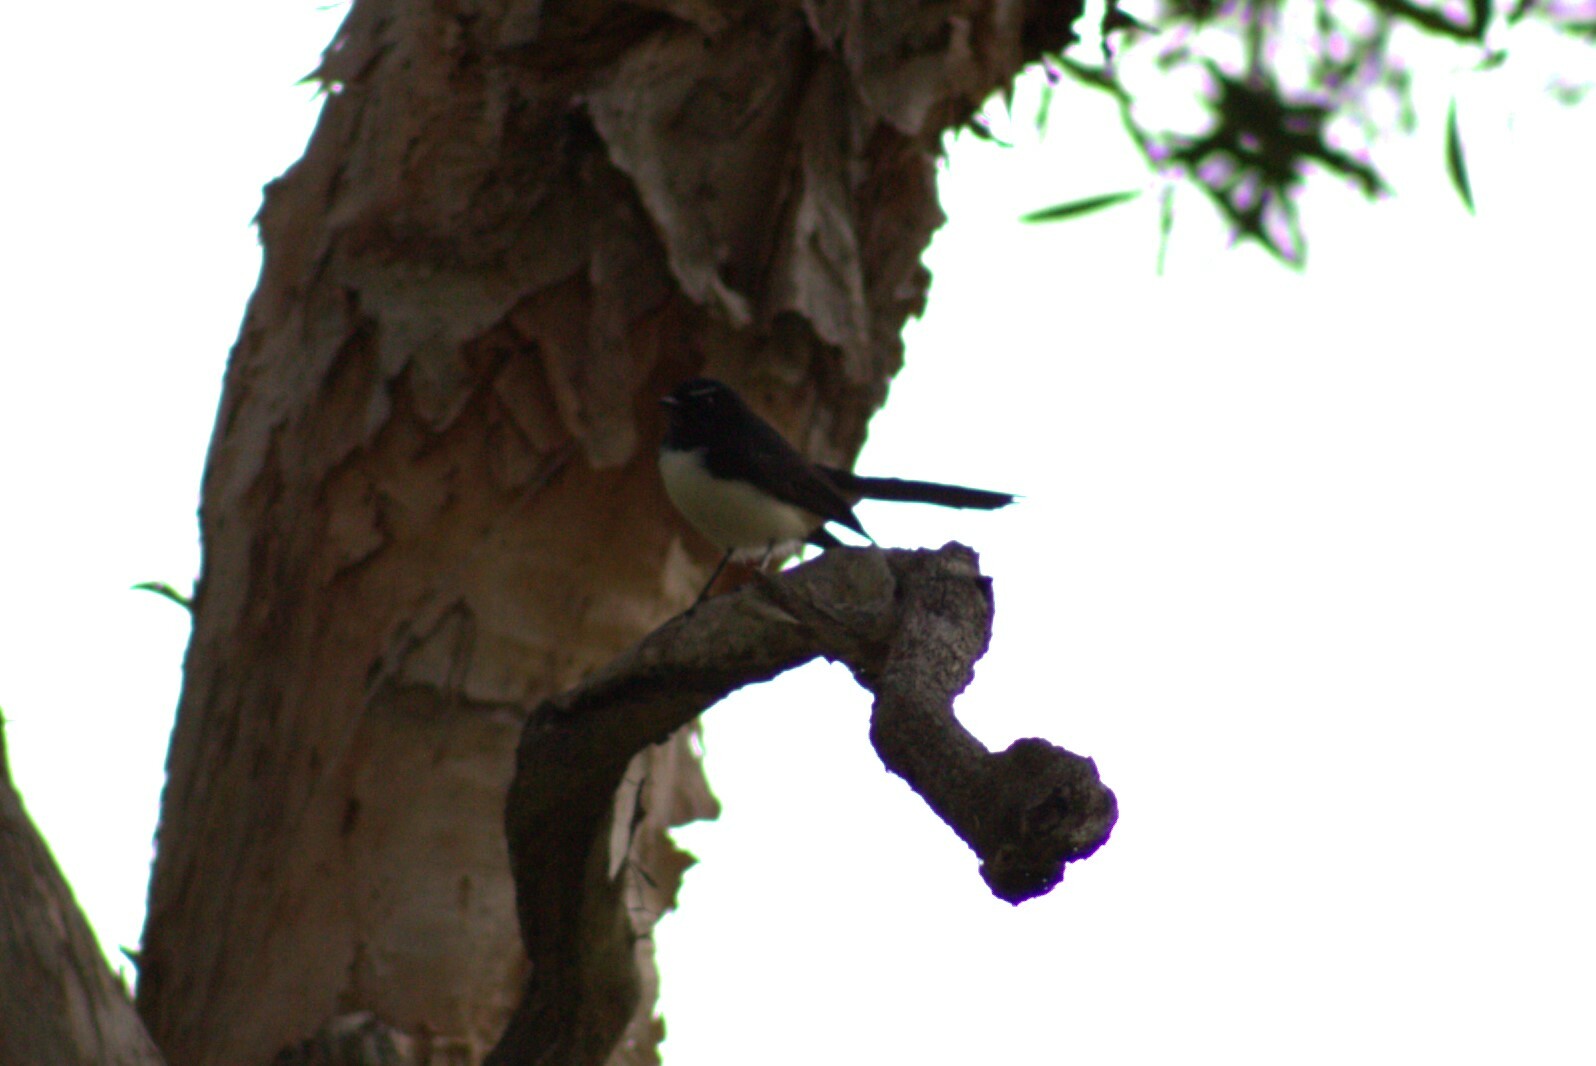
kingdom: Animalia
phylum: Chordata
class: Aves
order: Passeriformes
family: Rhipiduridae
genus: Rhipidura
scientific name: Rhipidura leucophrys
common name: Willie wagtail
